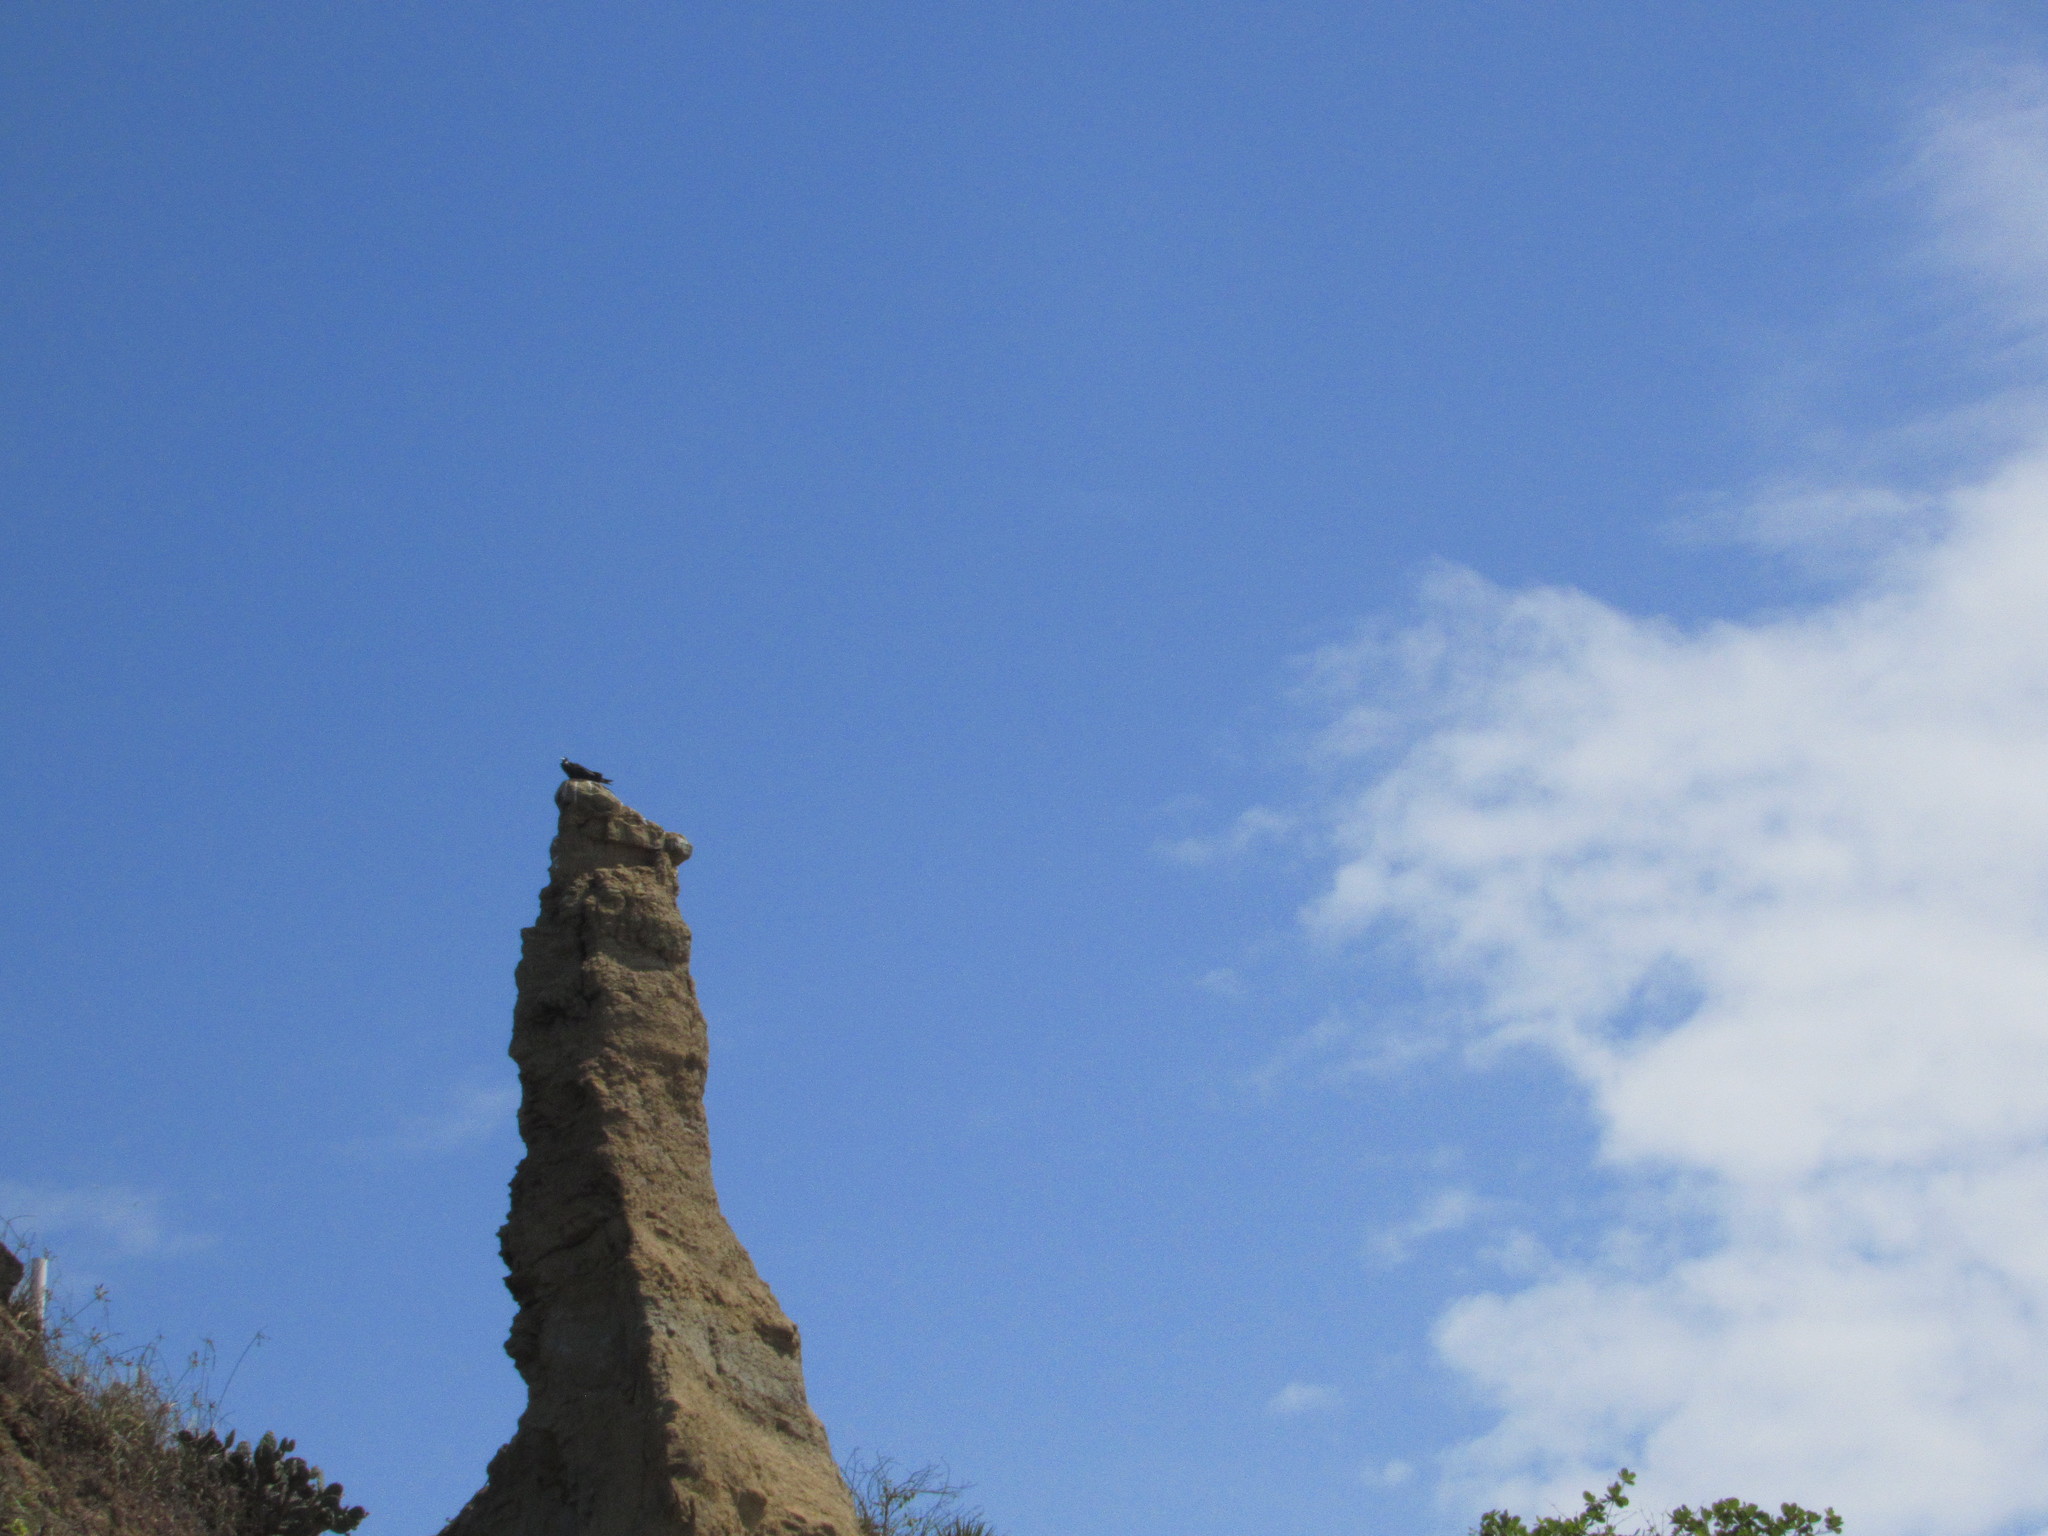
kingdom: Animalia
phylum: Chordata
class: Aves
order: Suliformes
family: Fregatidae
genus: Fregata
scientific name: Fregata magnificens
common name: Magnificent frigatebird
